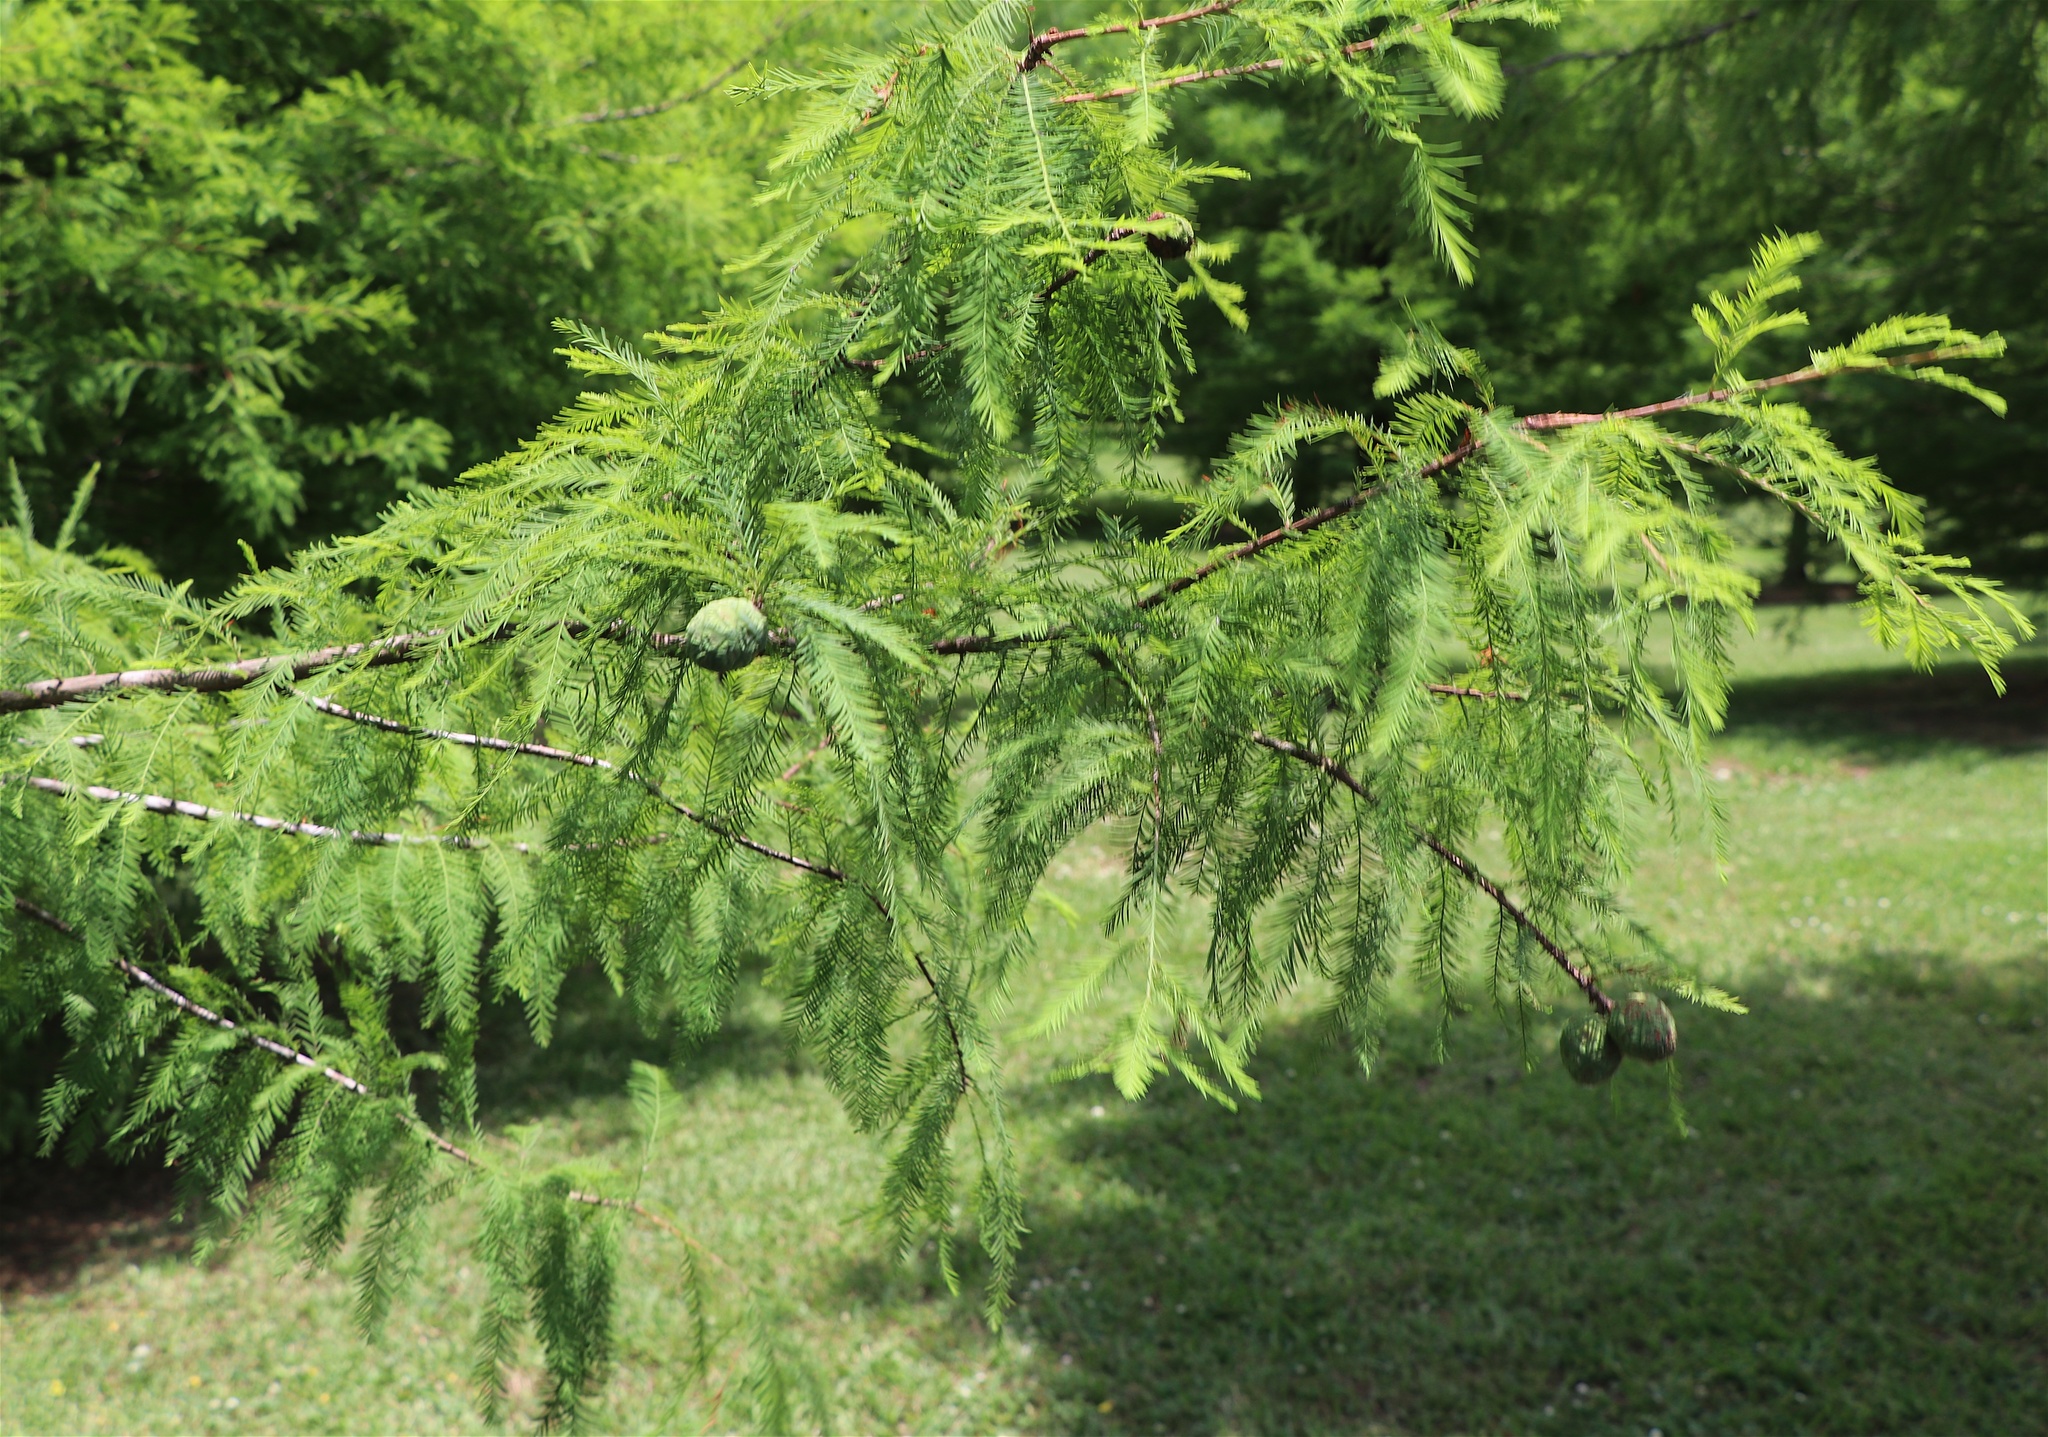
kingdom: Plantae
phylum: Tracheophyta
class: Pinopsida
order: Pinales
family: Cupressaceae
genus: Taxodium
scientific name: Taxodium distichum
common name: Bald cypress
